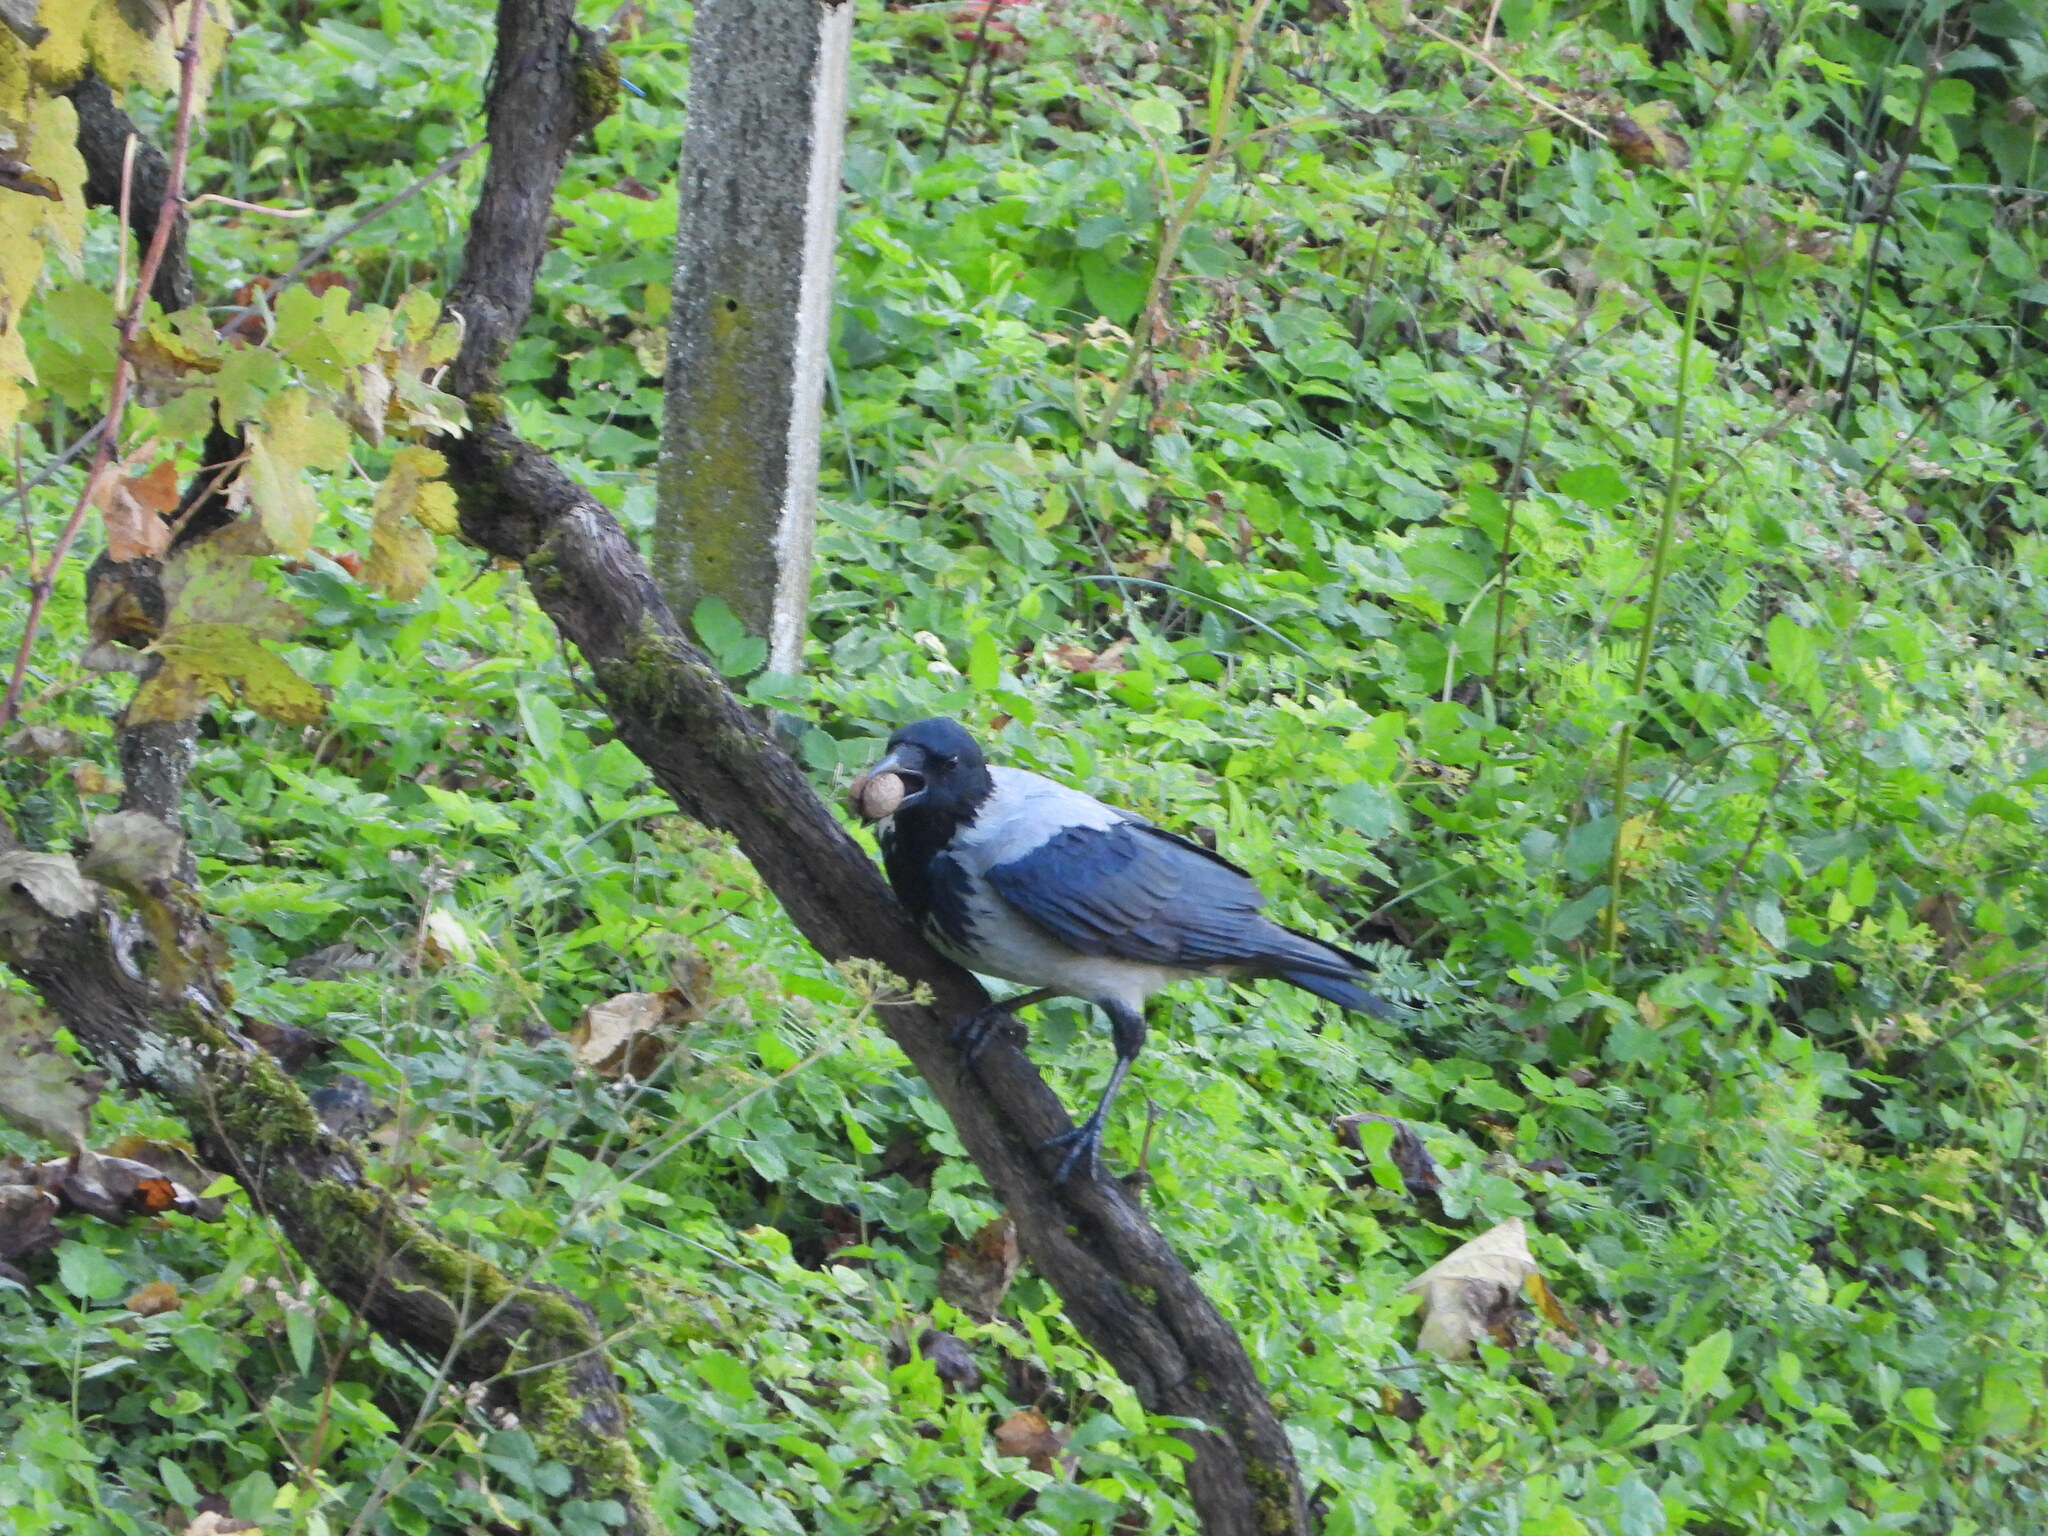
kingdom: Animalia
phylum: Chordata
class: Aves
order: Passeriformes
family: Corvidae
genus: Corvus
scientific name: Corvus cornix
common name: Hooded crow
